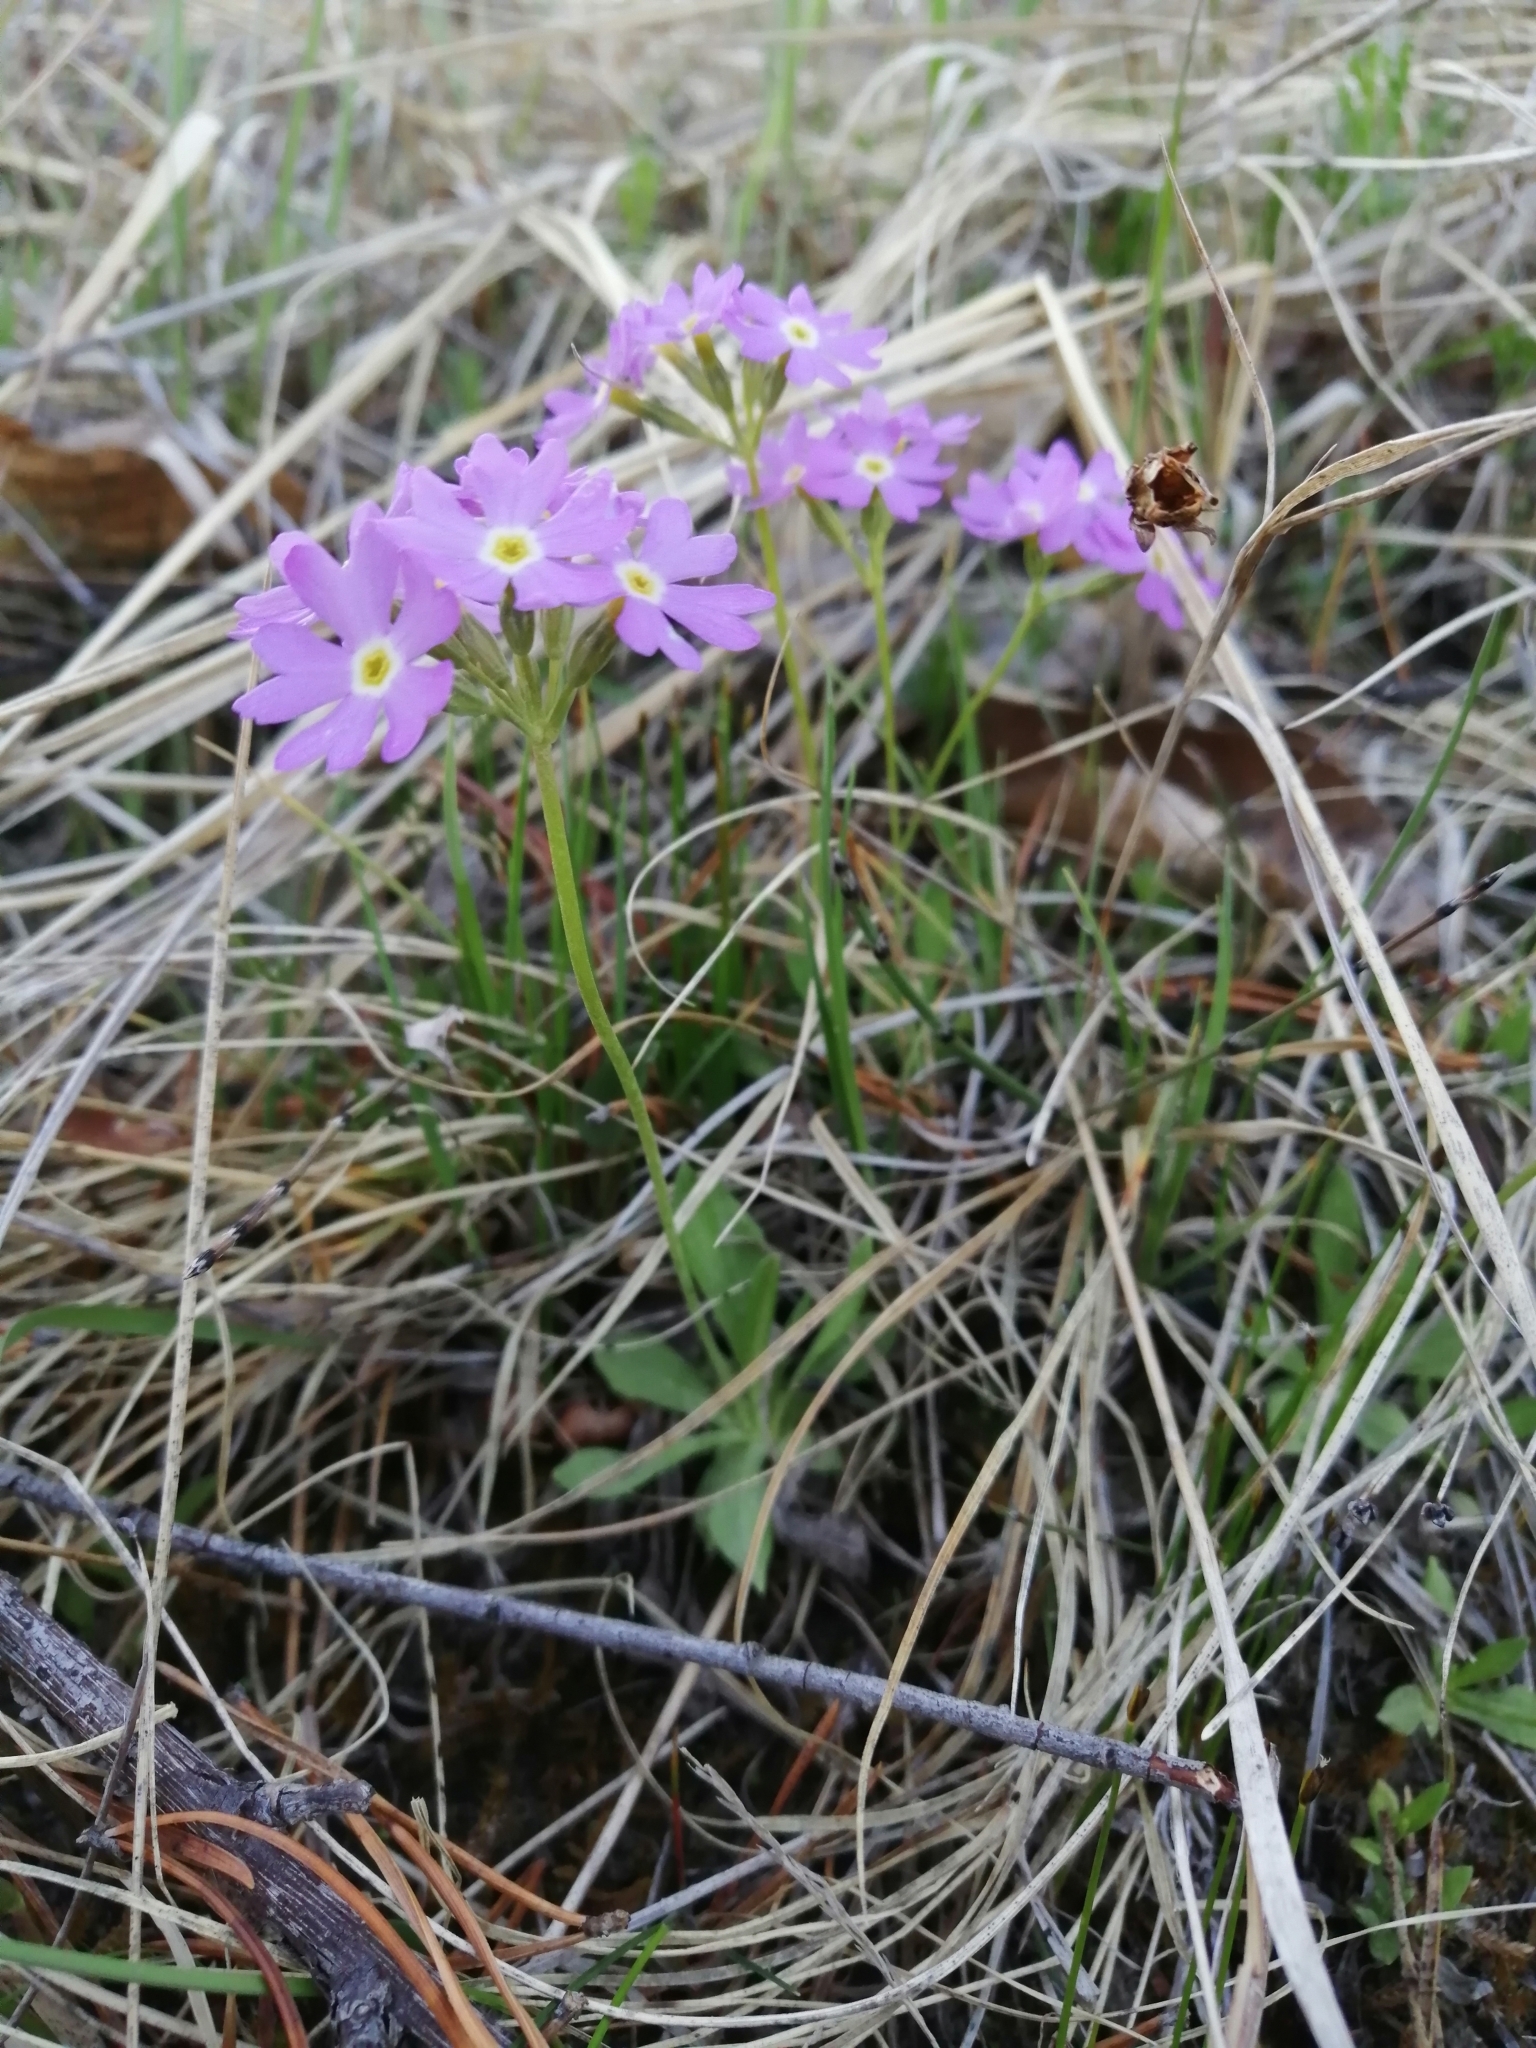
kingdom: Plantae
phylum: Tracheophyta
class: Magnoliopsida
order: Ericales
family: Primulaceae
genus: Primula
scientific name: Primula farinosa
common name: Bird's-eye primrose
